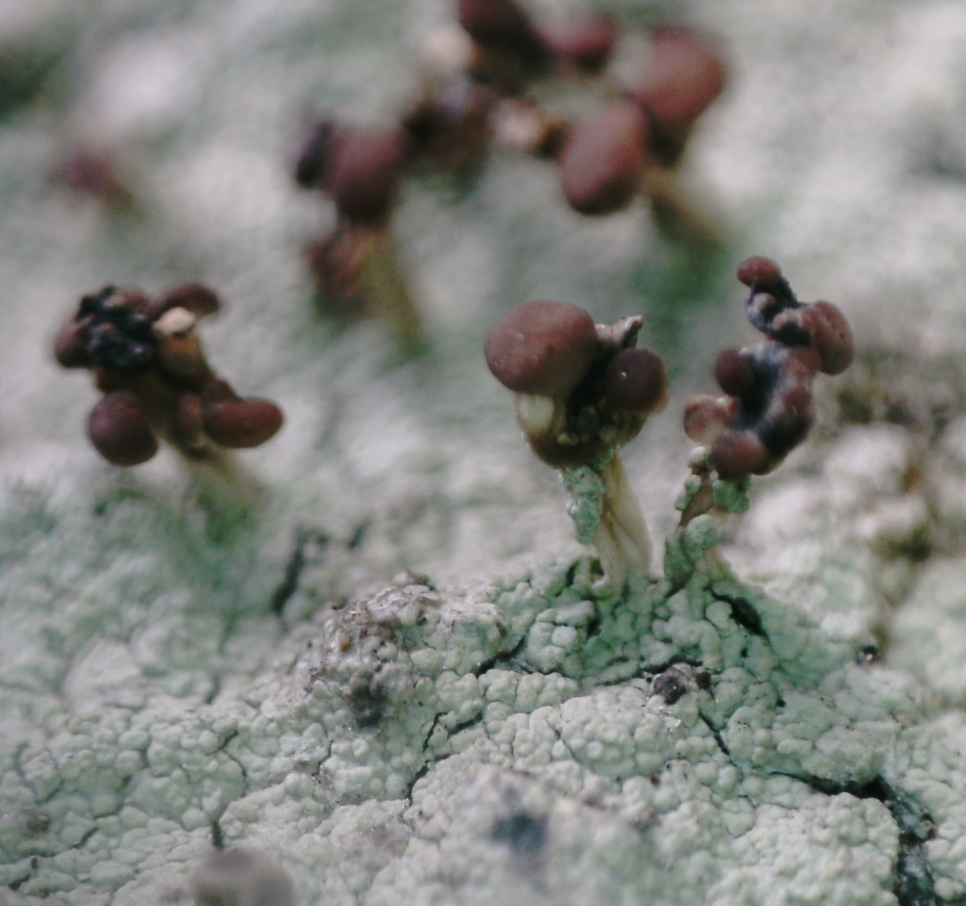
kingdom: Fungi
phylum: Ascomycota
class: Lecanoromycetes
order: Baeomycetales
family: Baeomycetaceae
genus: Baeomyces
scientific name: Baeomyces carneus
